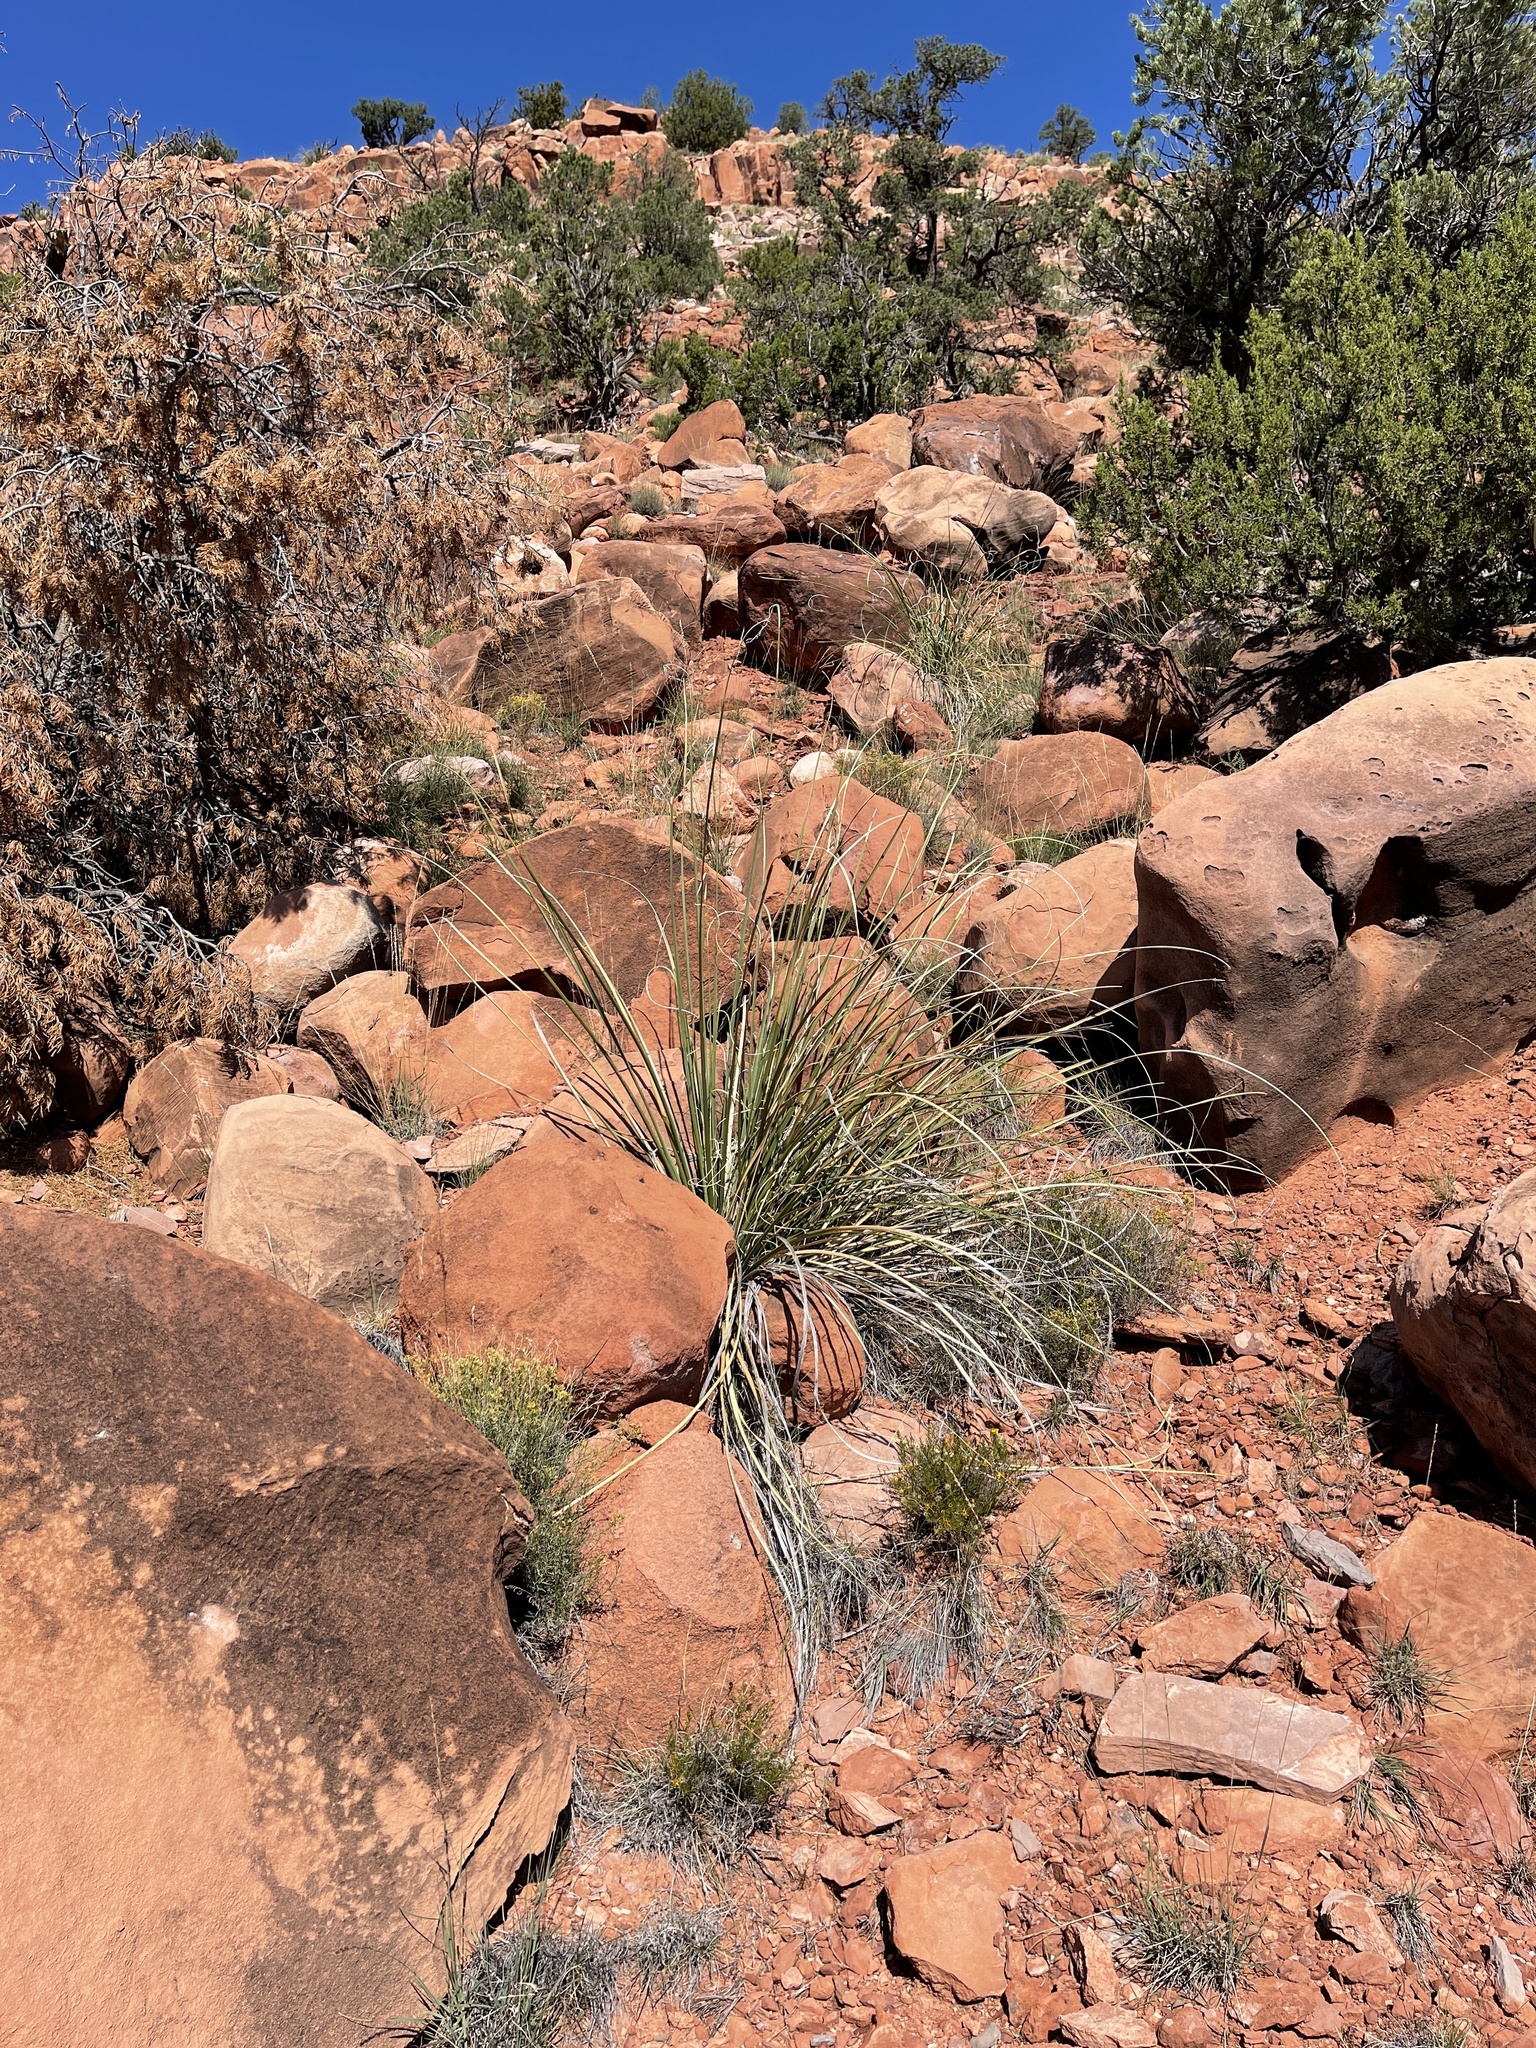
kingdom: Plantae
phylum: Tracheophyta
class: Liliopsida
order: Asparagales
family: Asparagaceae
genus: Nolina
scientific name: Nolina microcarpa
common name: Bear-grass
